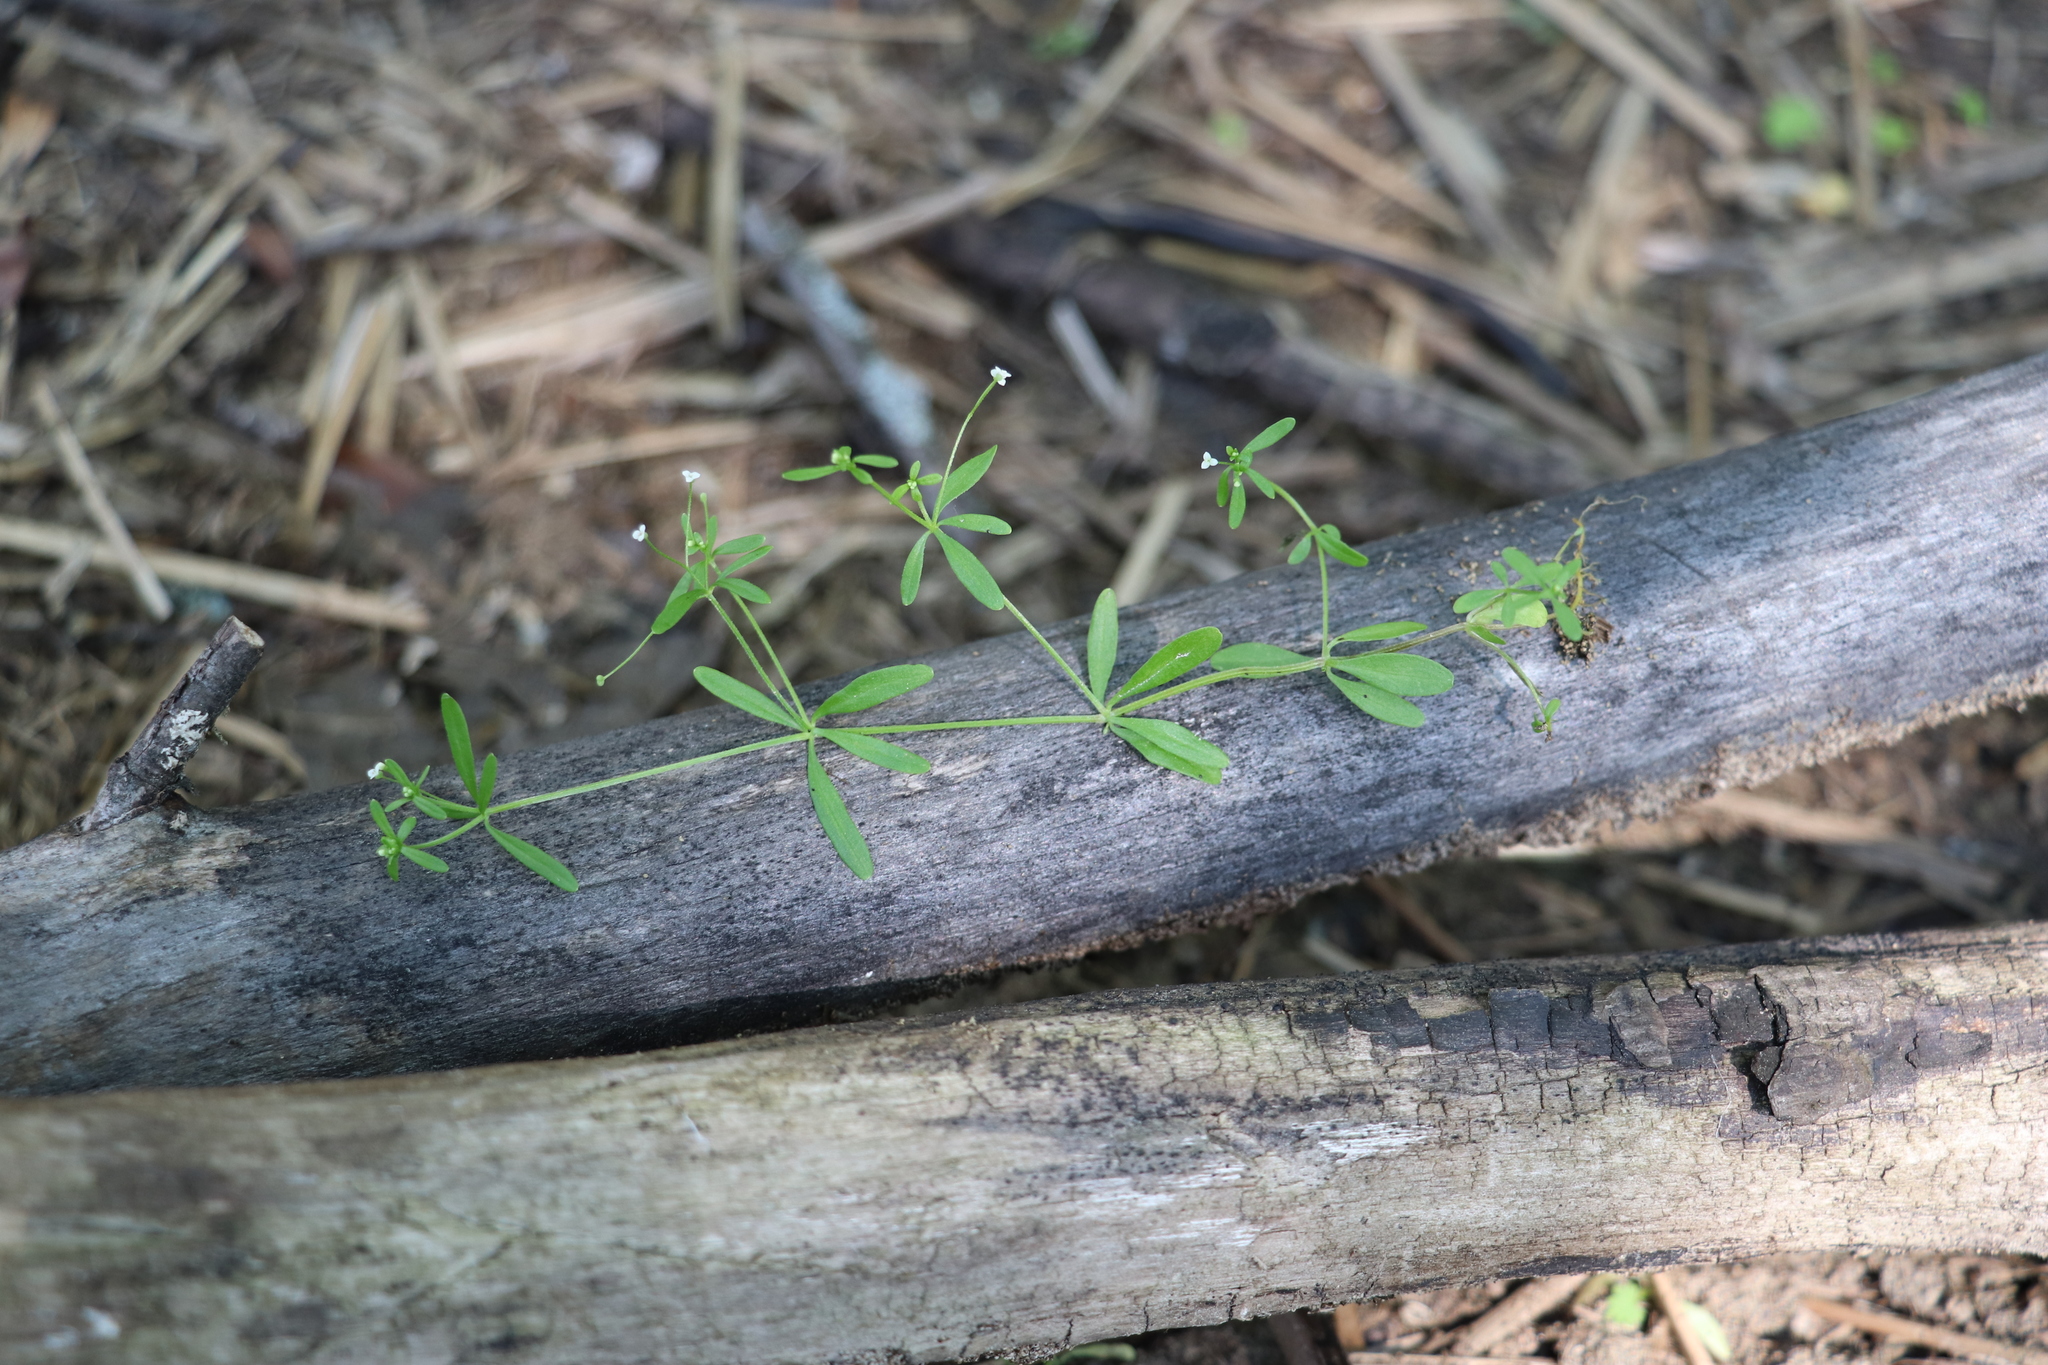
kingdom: Plantae
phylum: Tracheophyta
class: Magnoliopsida
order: Gentianales
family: Rubiaceae
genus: Galium
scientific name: Galium trifidum
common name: Small bedstraw
